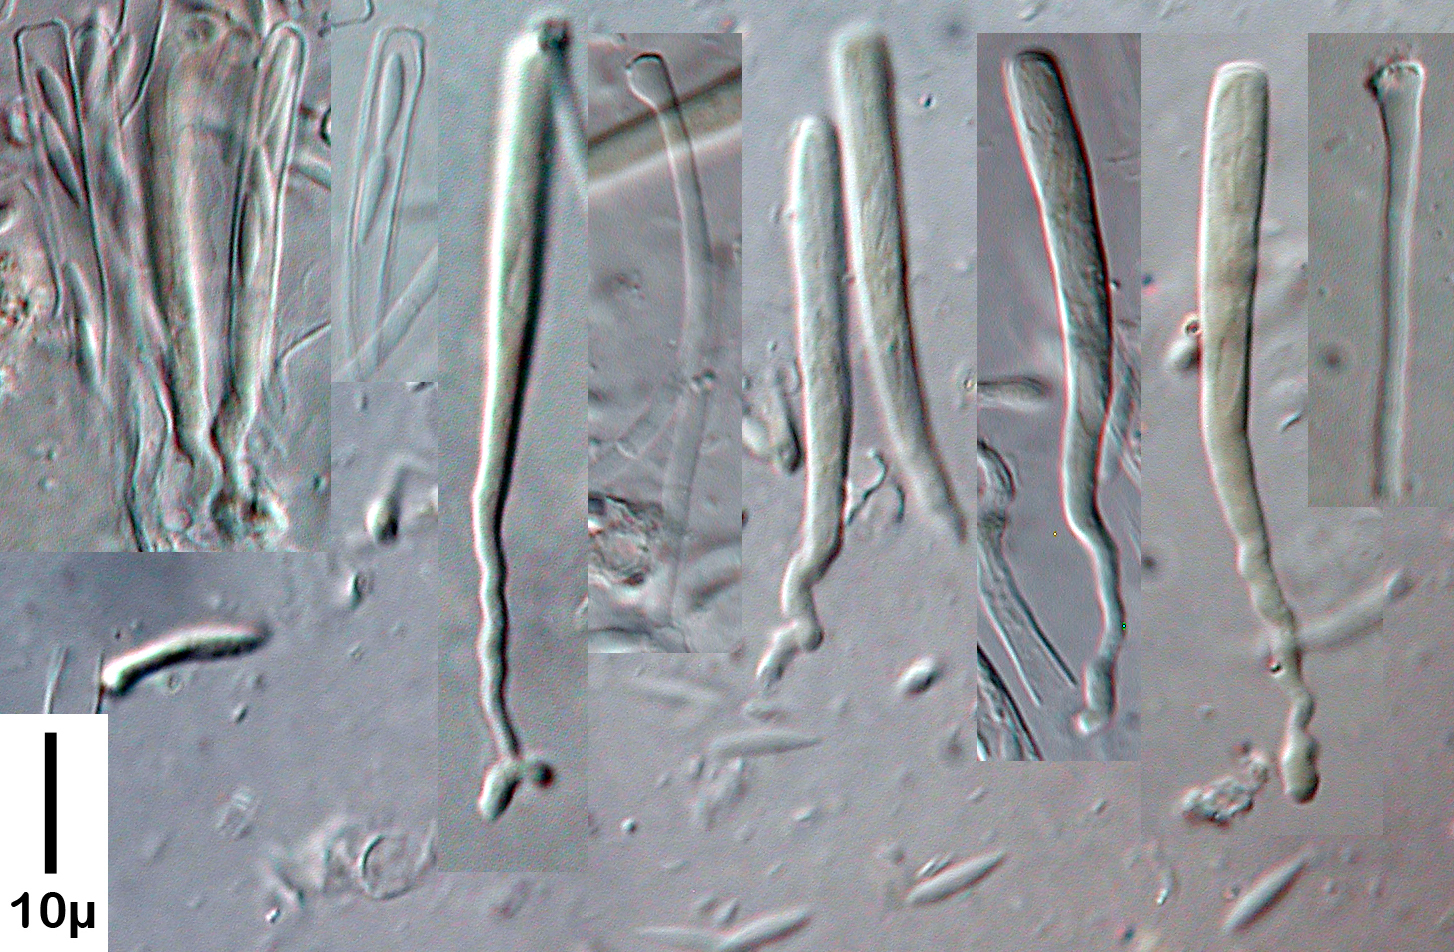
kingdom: Fungi
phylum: Ascomycota
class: Orbiliomycetes
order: Orbiliales
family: Orbiliaceae
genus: Orbilia
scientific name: Orbilia sarraziniana
